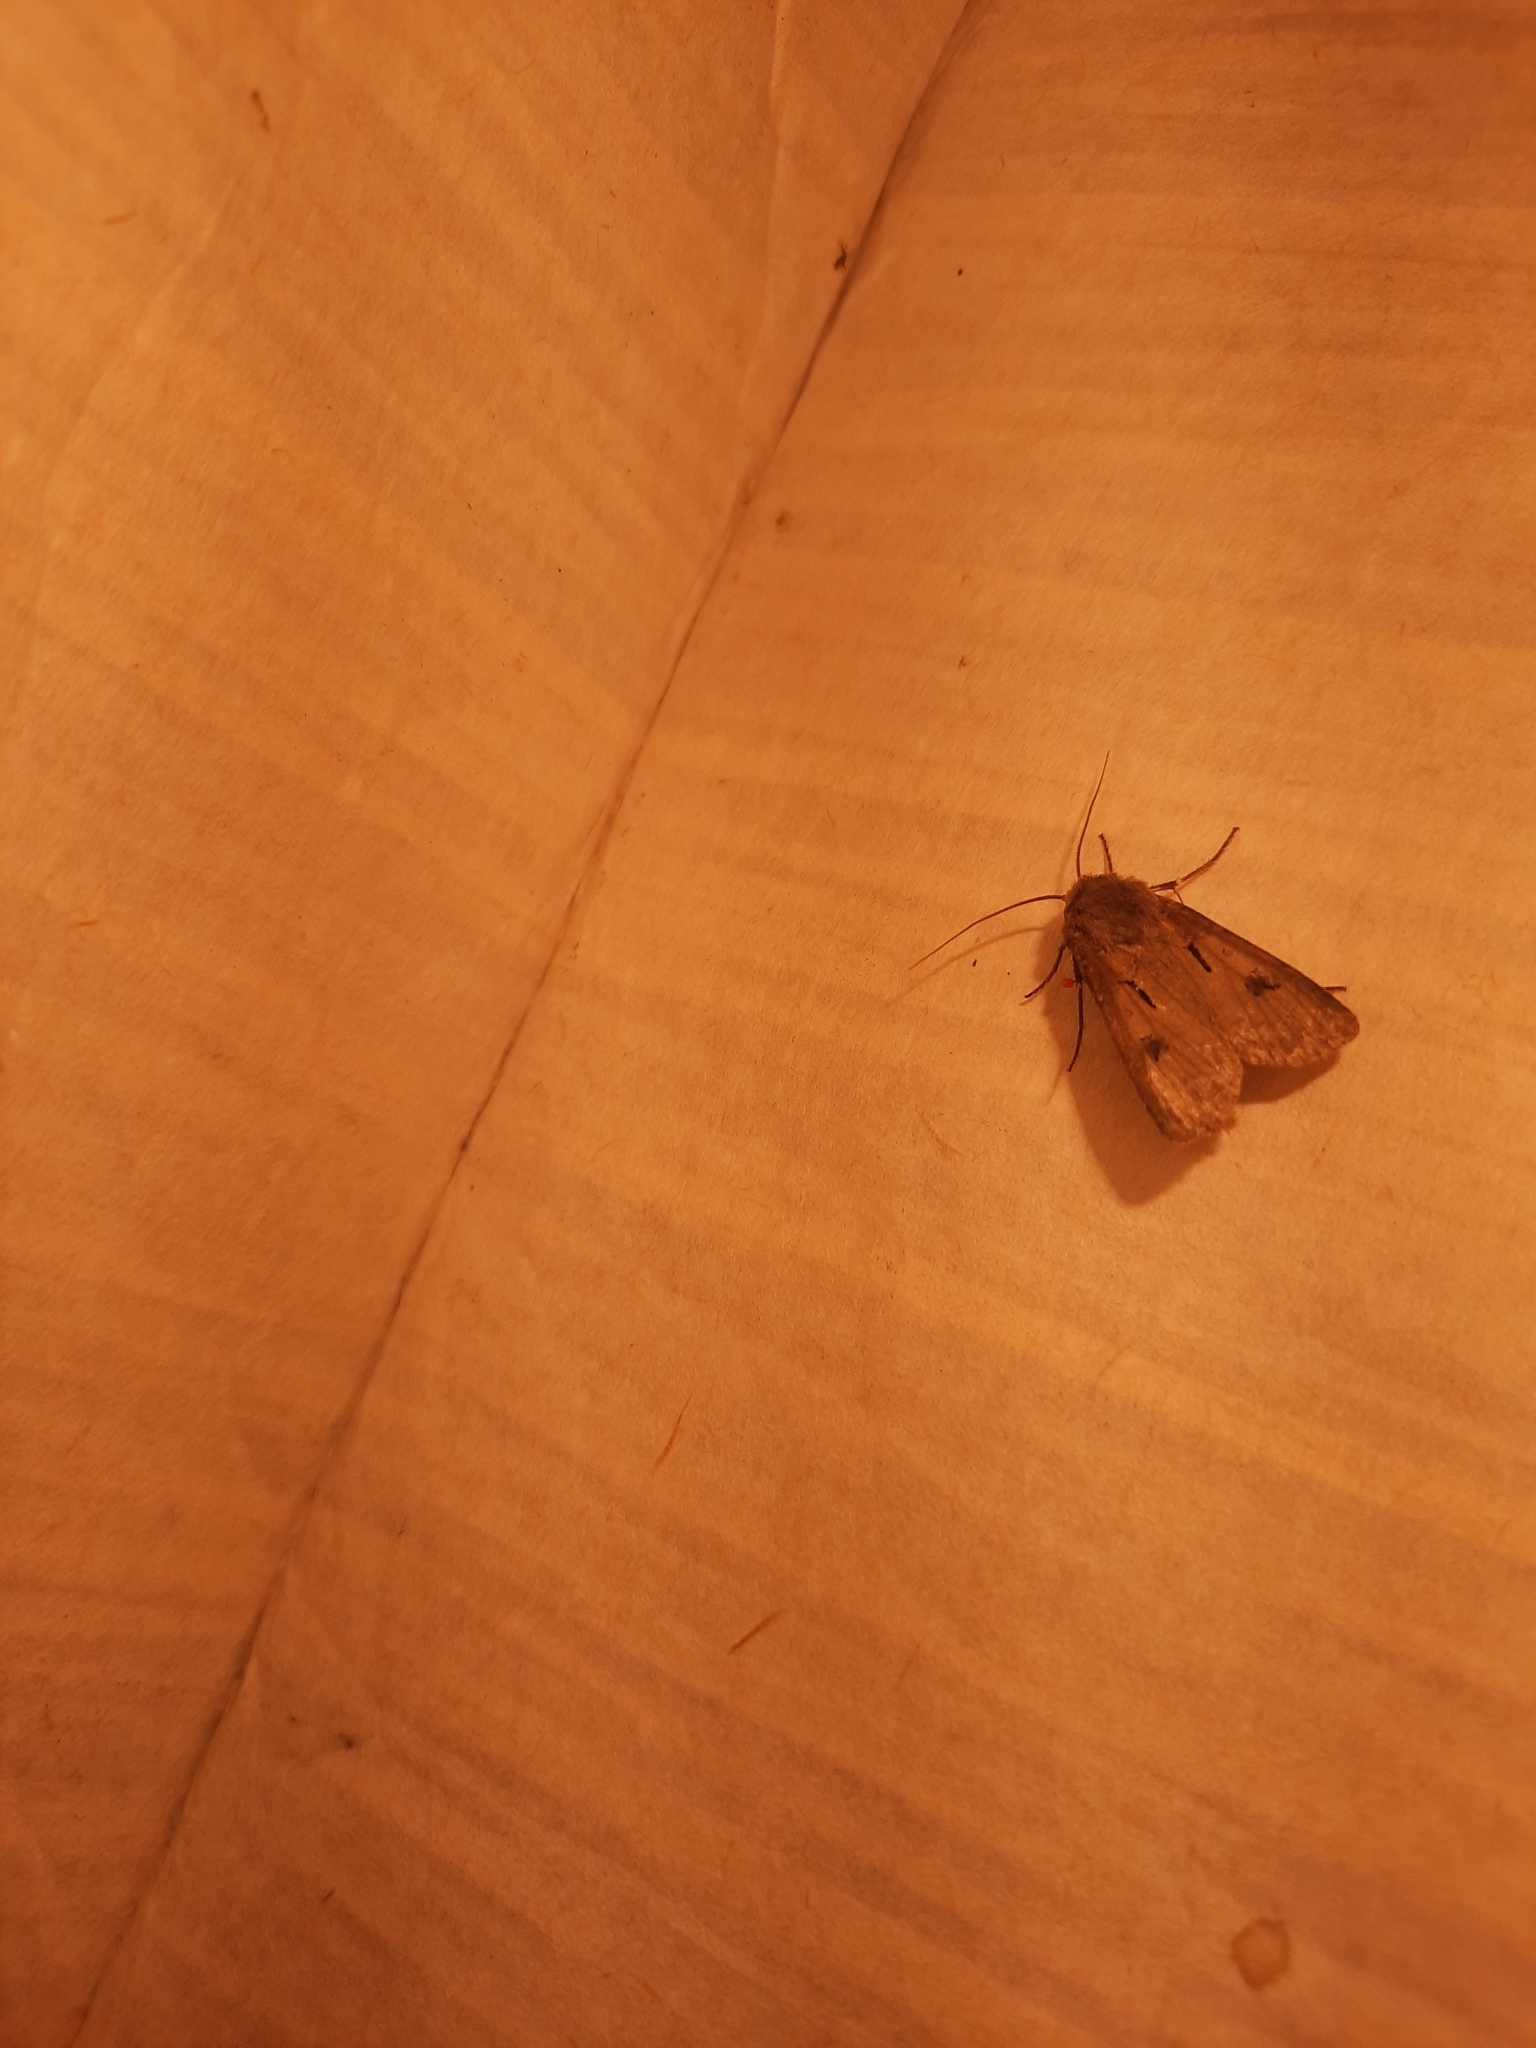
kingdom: Animalia
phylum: Arthropoda
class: Insecta
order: Lepidoptera
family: Noctuidae
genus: Agrotis
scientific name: Agrotis exclamationis
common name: Heart and dart
